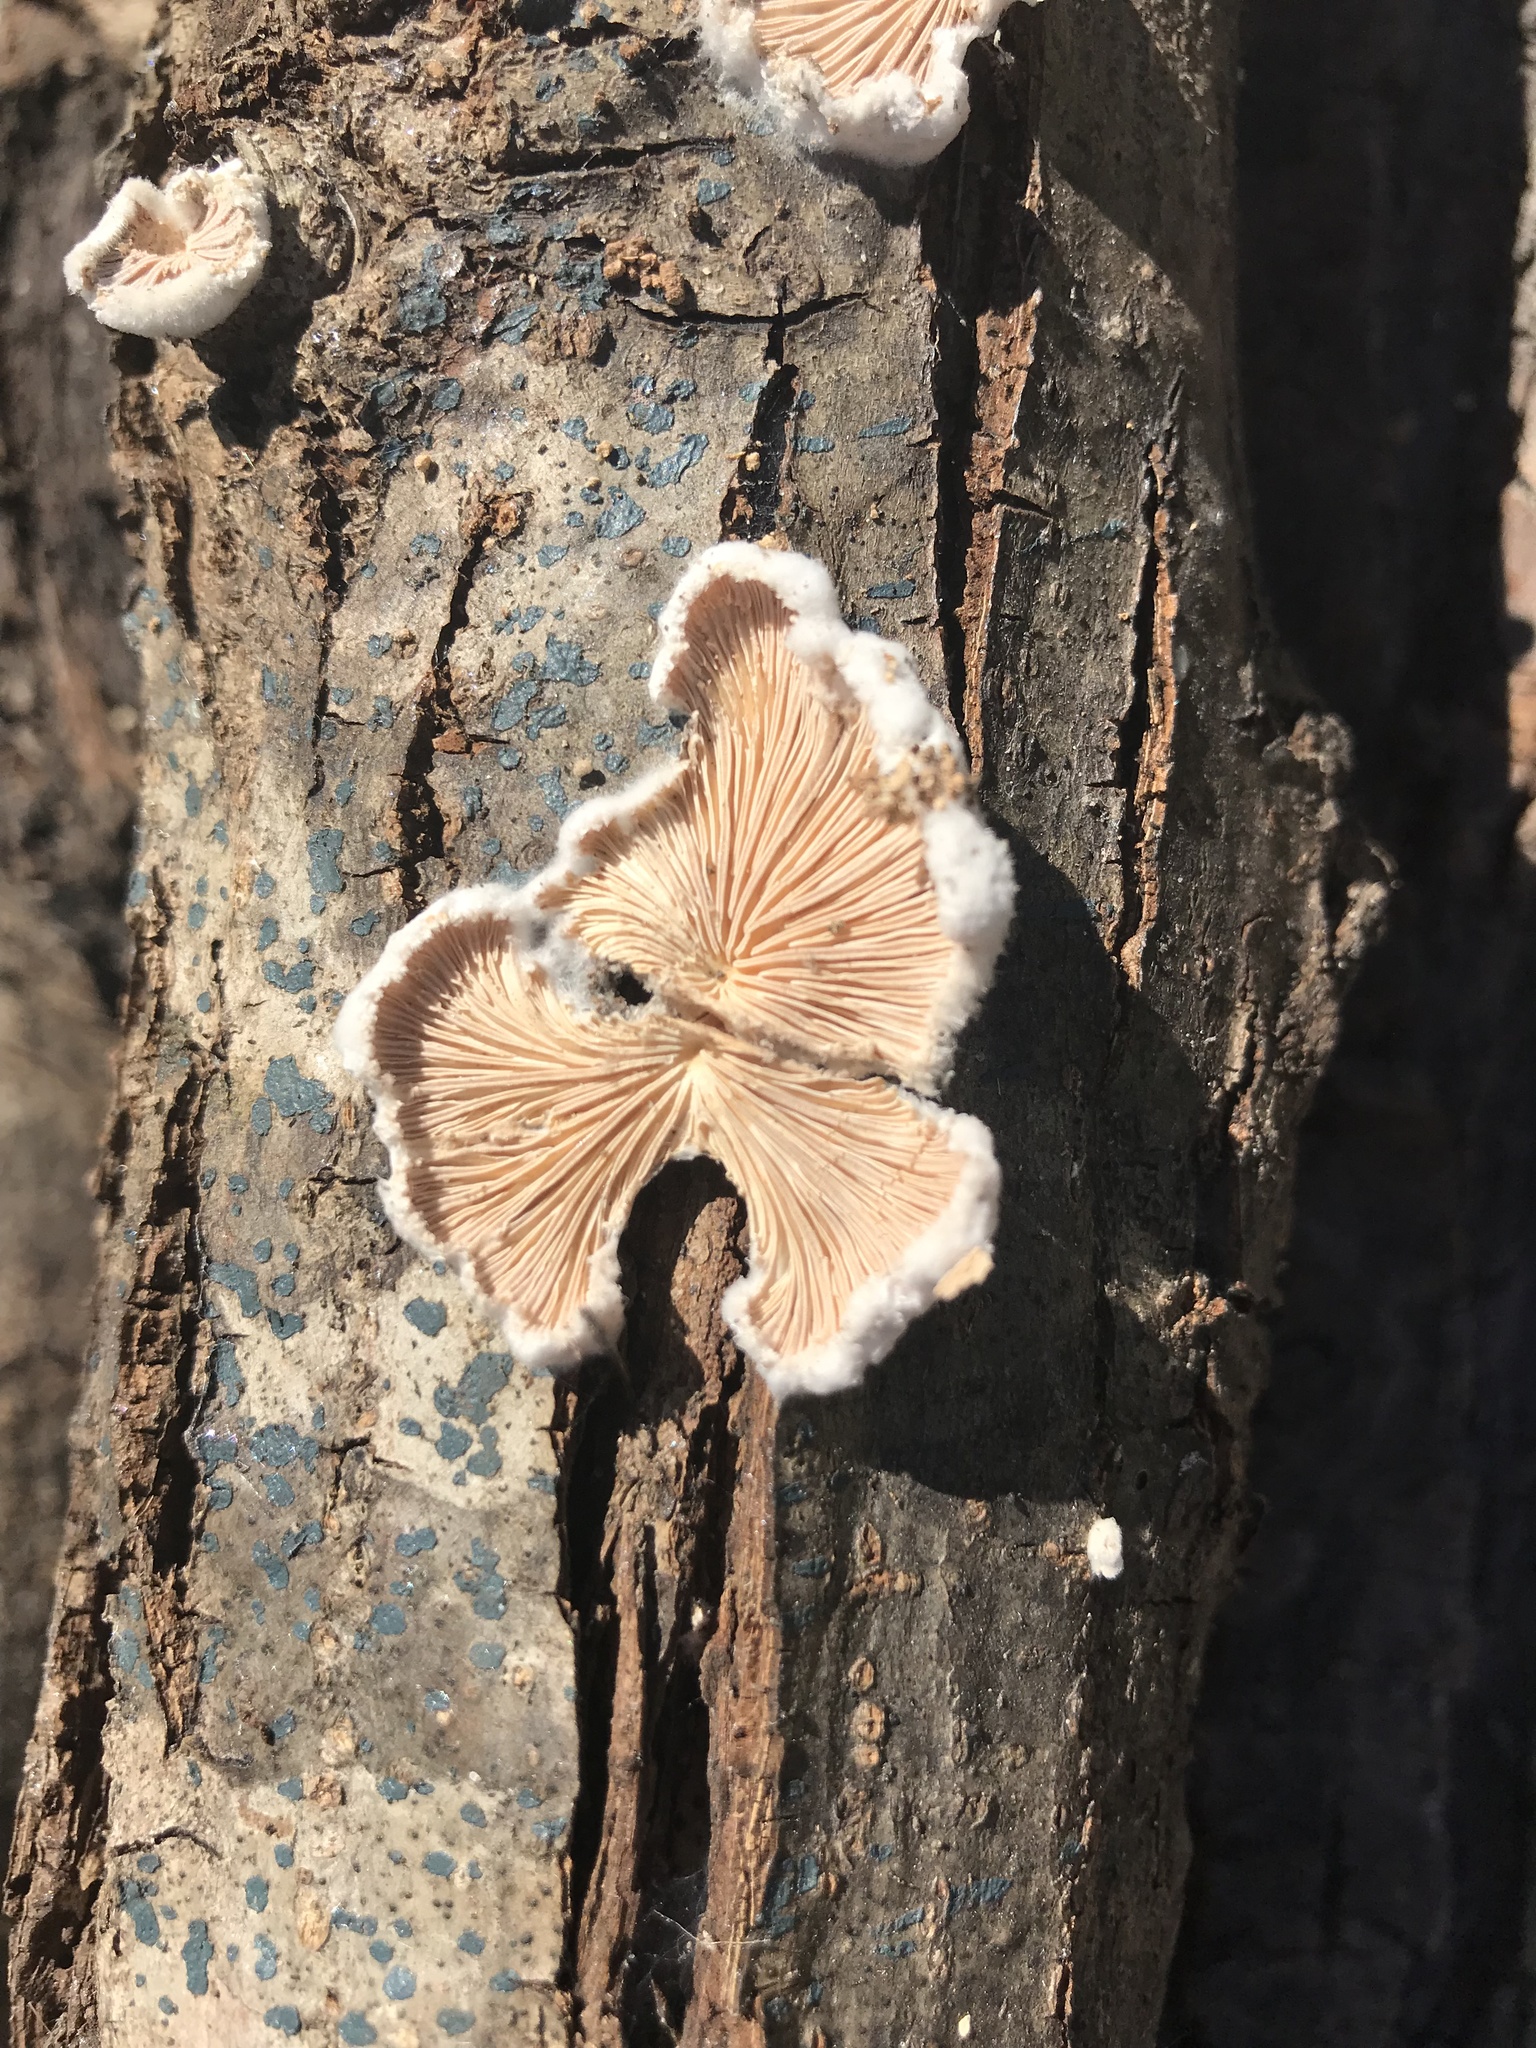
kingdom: Fungi
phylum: Basidiomycota
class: Agaricomycetes
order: Agaricales
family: Schizophyllaceae
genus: Schizophyllum
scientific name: Schizophyllum commune
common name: Common porecrust
